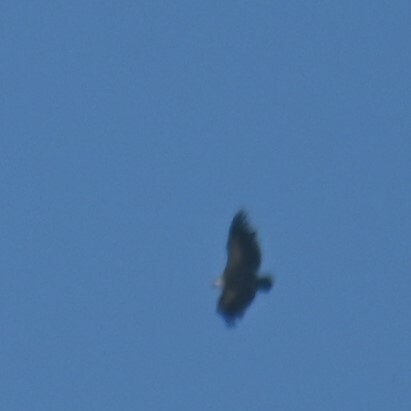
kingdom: Animalia
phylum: Chordata
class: Aves
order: Accipitriformes
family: Accipitridae
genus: Gyps
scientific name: Gyps fulvus
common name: Griffon vulture
